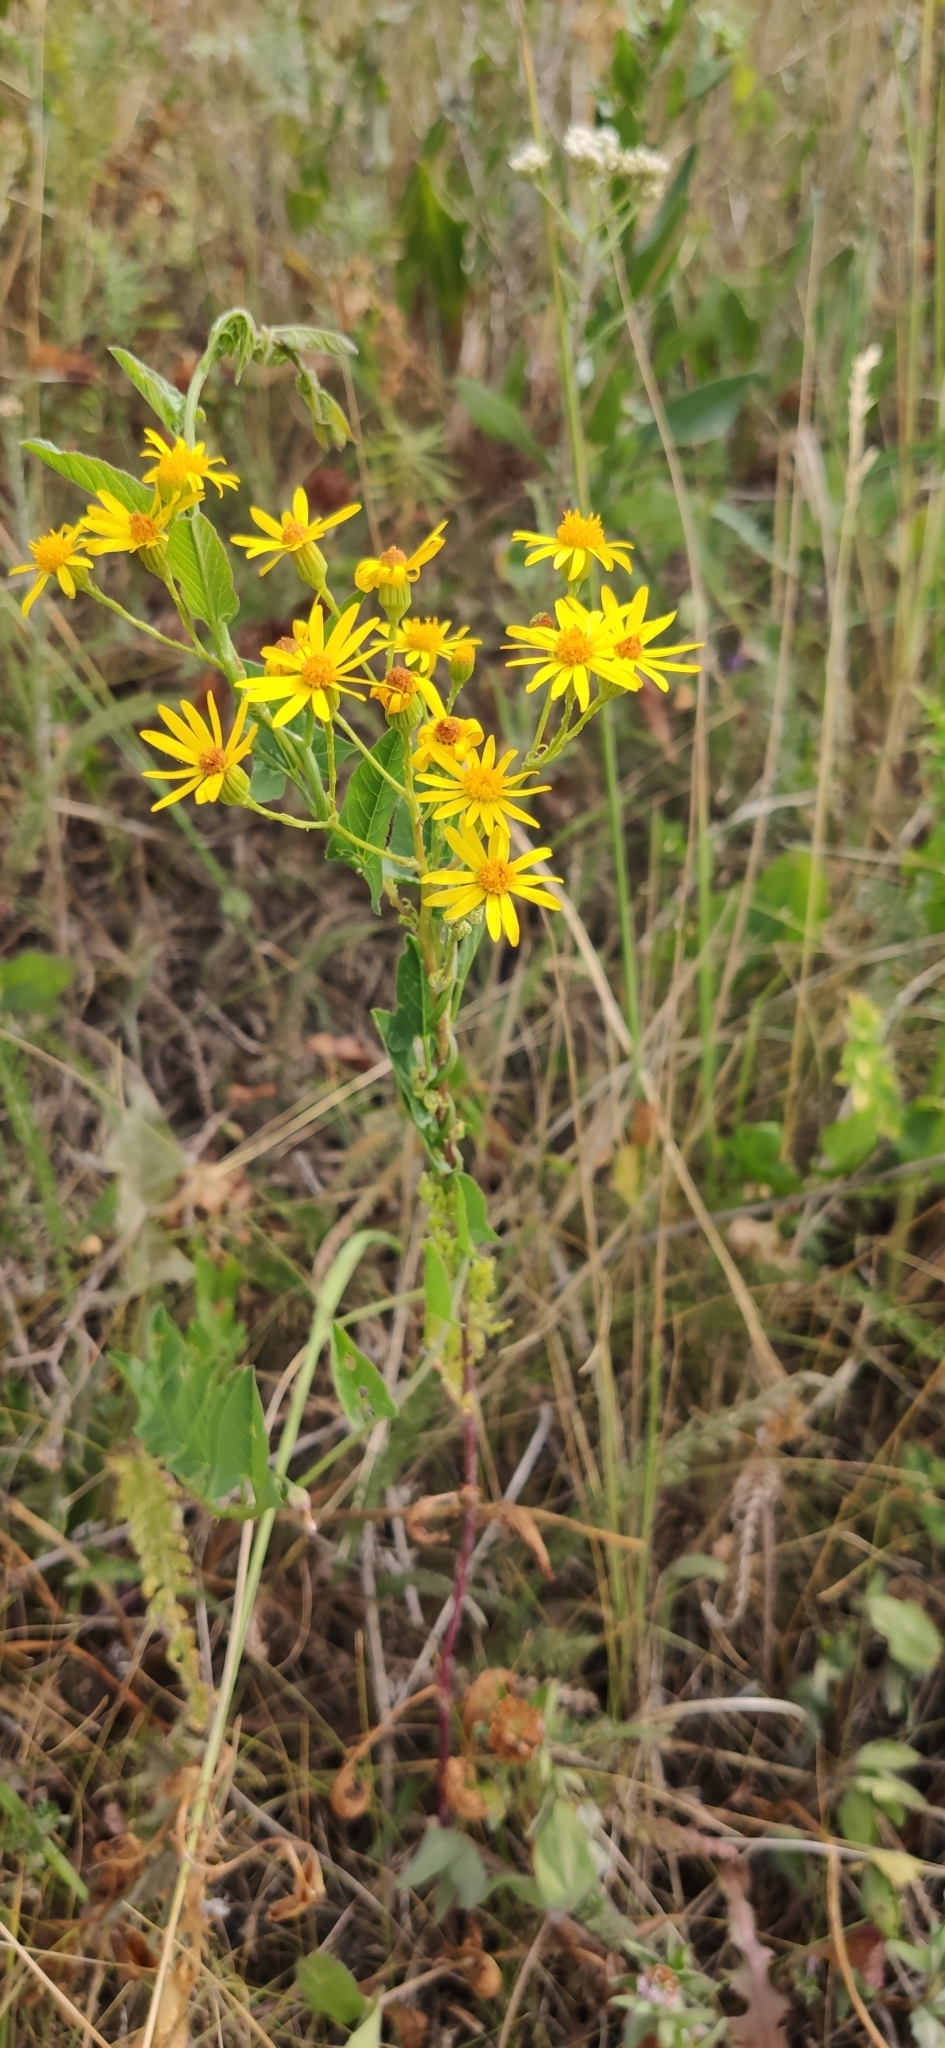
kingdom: Plantae
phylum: Tracheophyta
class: Magnoliopsida
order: Asterales
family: Asteraceae
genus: Jacobaea
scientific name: Jacobaea vulgaris
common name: Stinking willie
